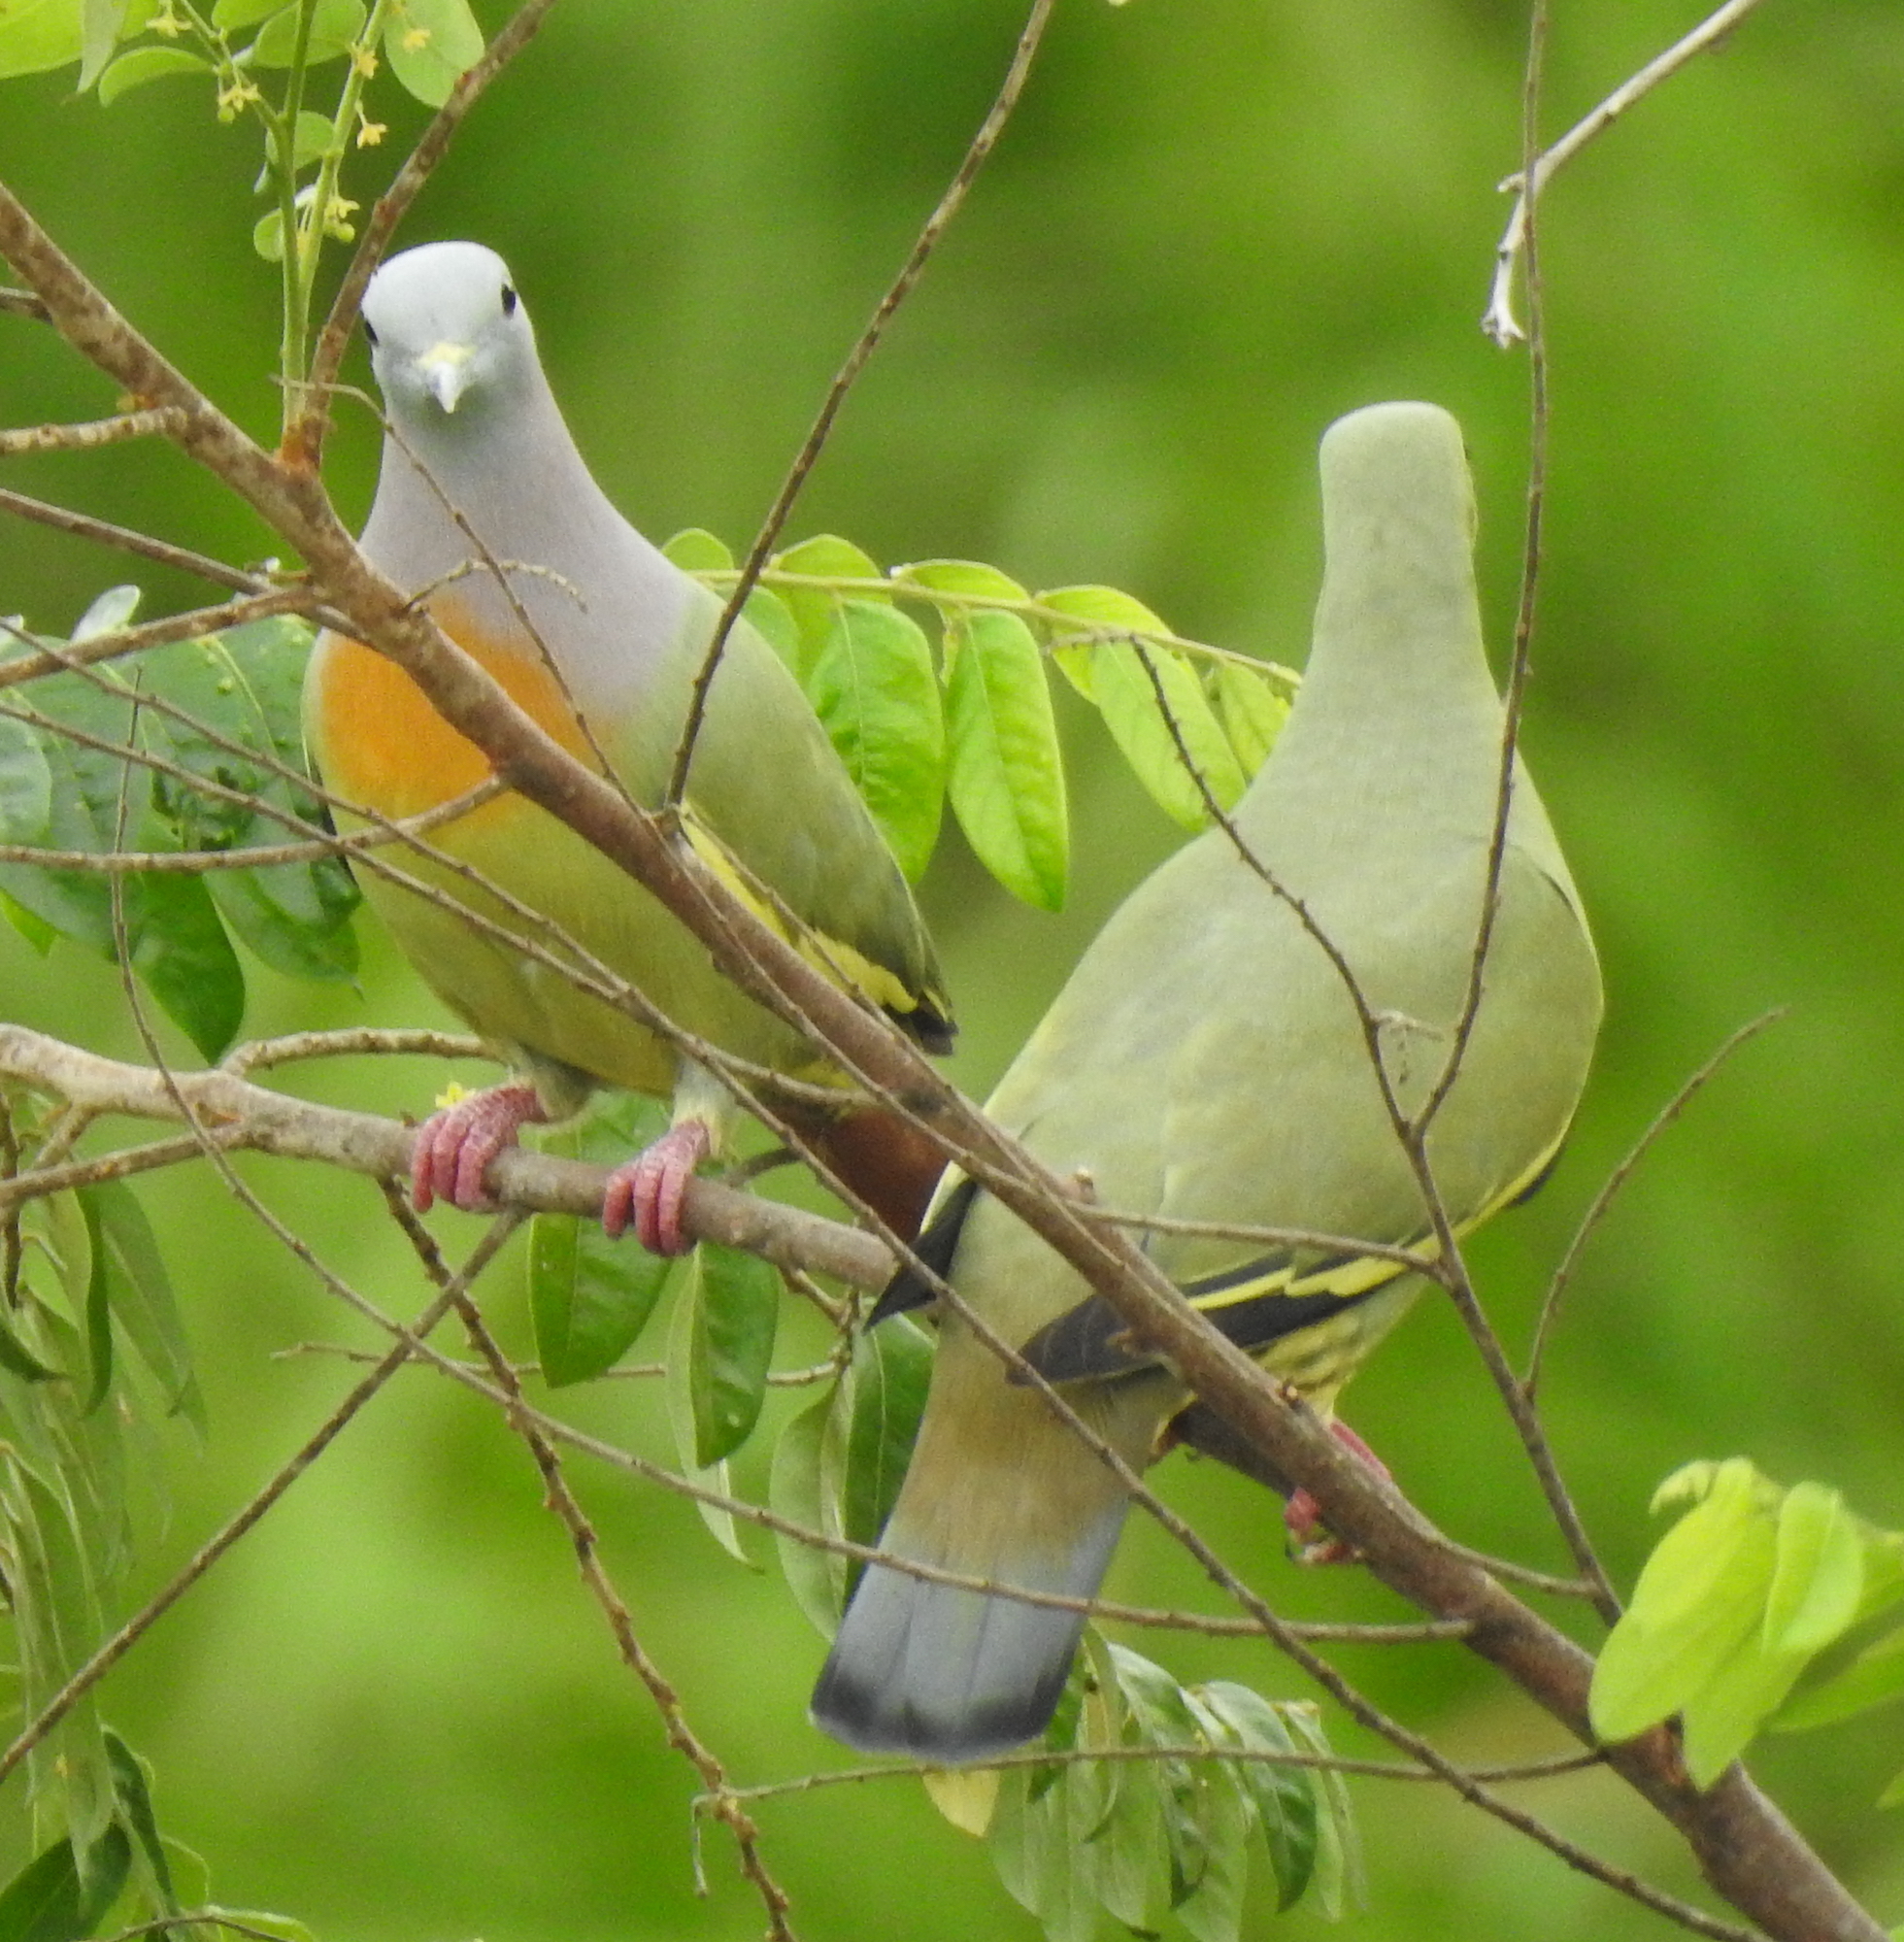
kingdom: Animalia
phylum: Chordata
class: Aves
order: Columbiformes
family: Columbidae
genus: Treron
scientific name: Treron vernans
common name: Pink-necked green pigeon
